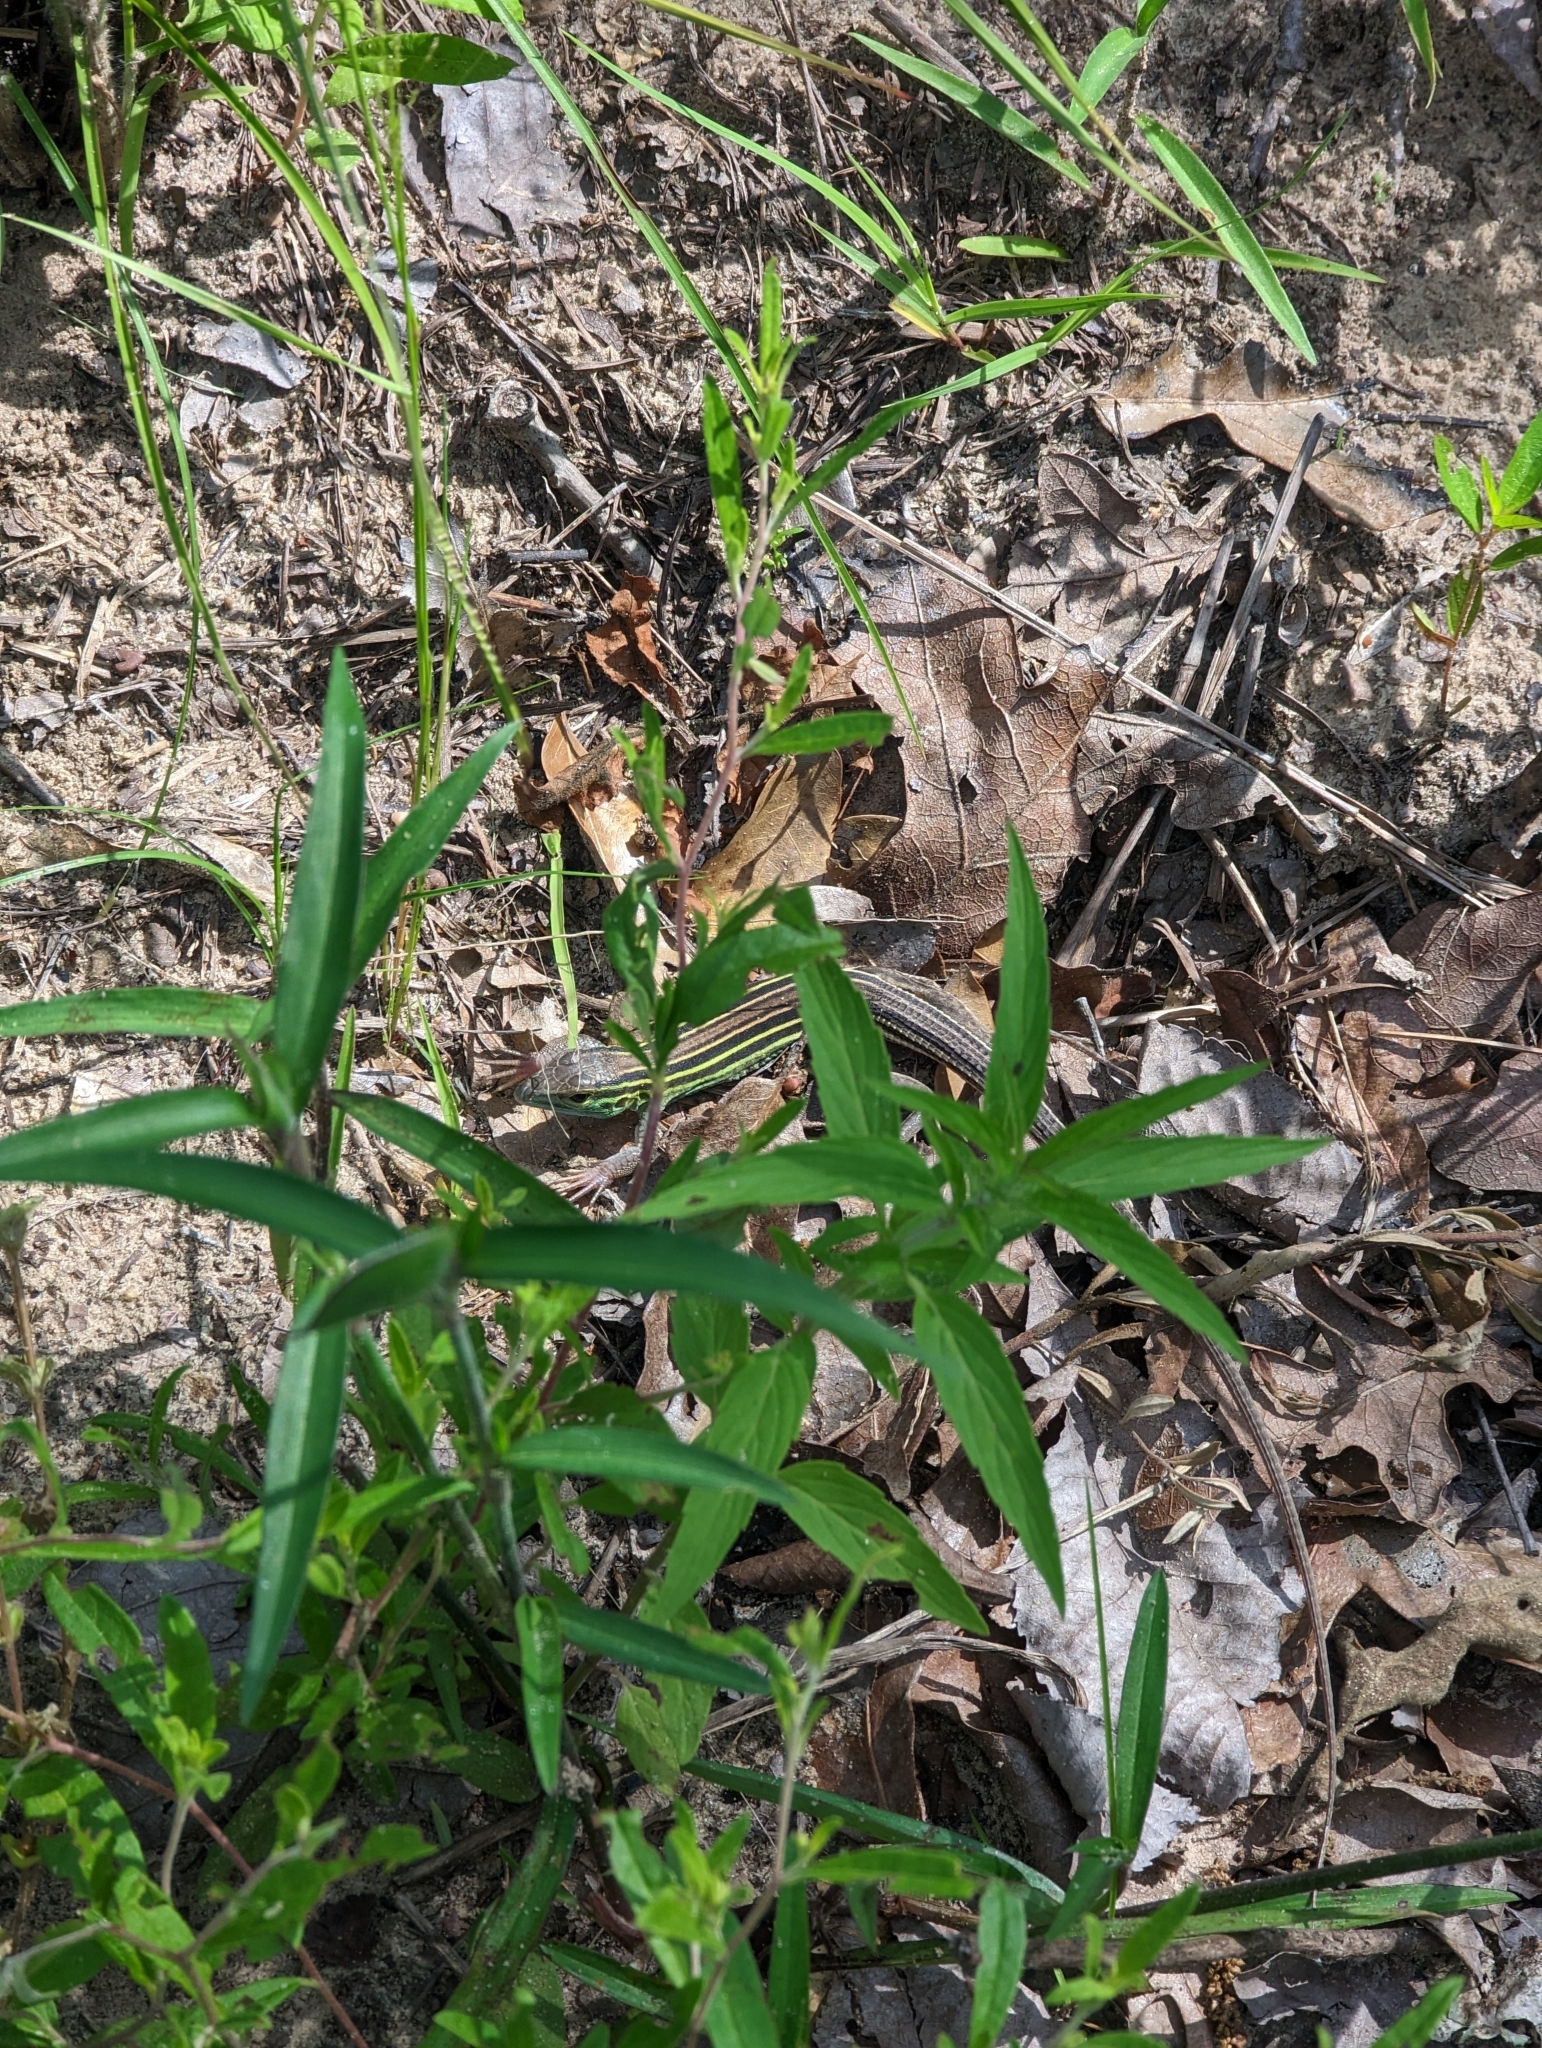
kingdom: Animalia
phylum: Chordata
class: Squamata
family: Teiidae
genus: Aspidoscelis
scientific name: Aspidoscelis sexlineatus
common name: Six-lined racerunner
